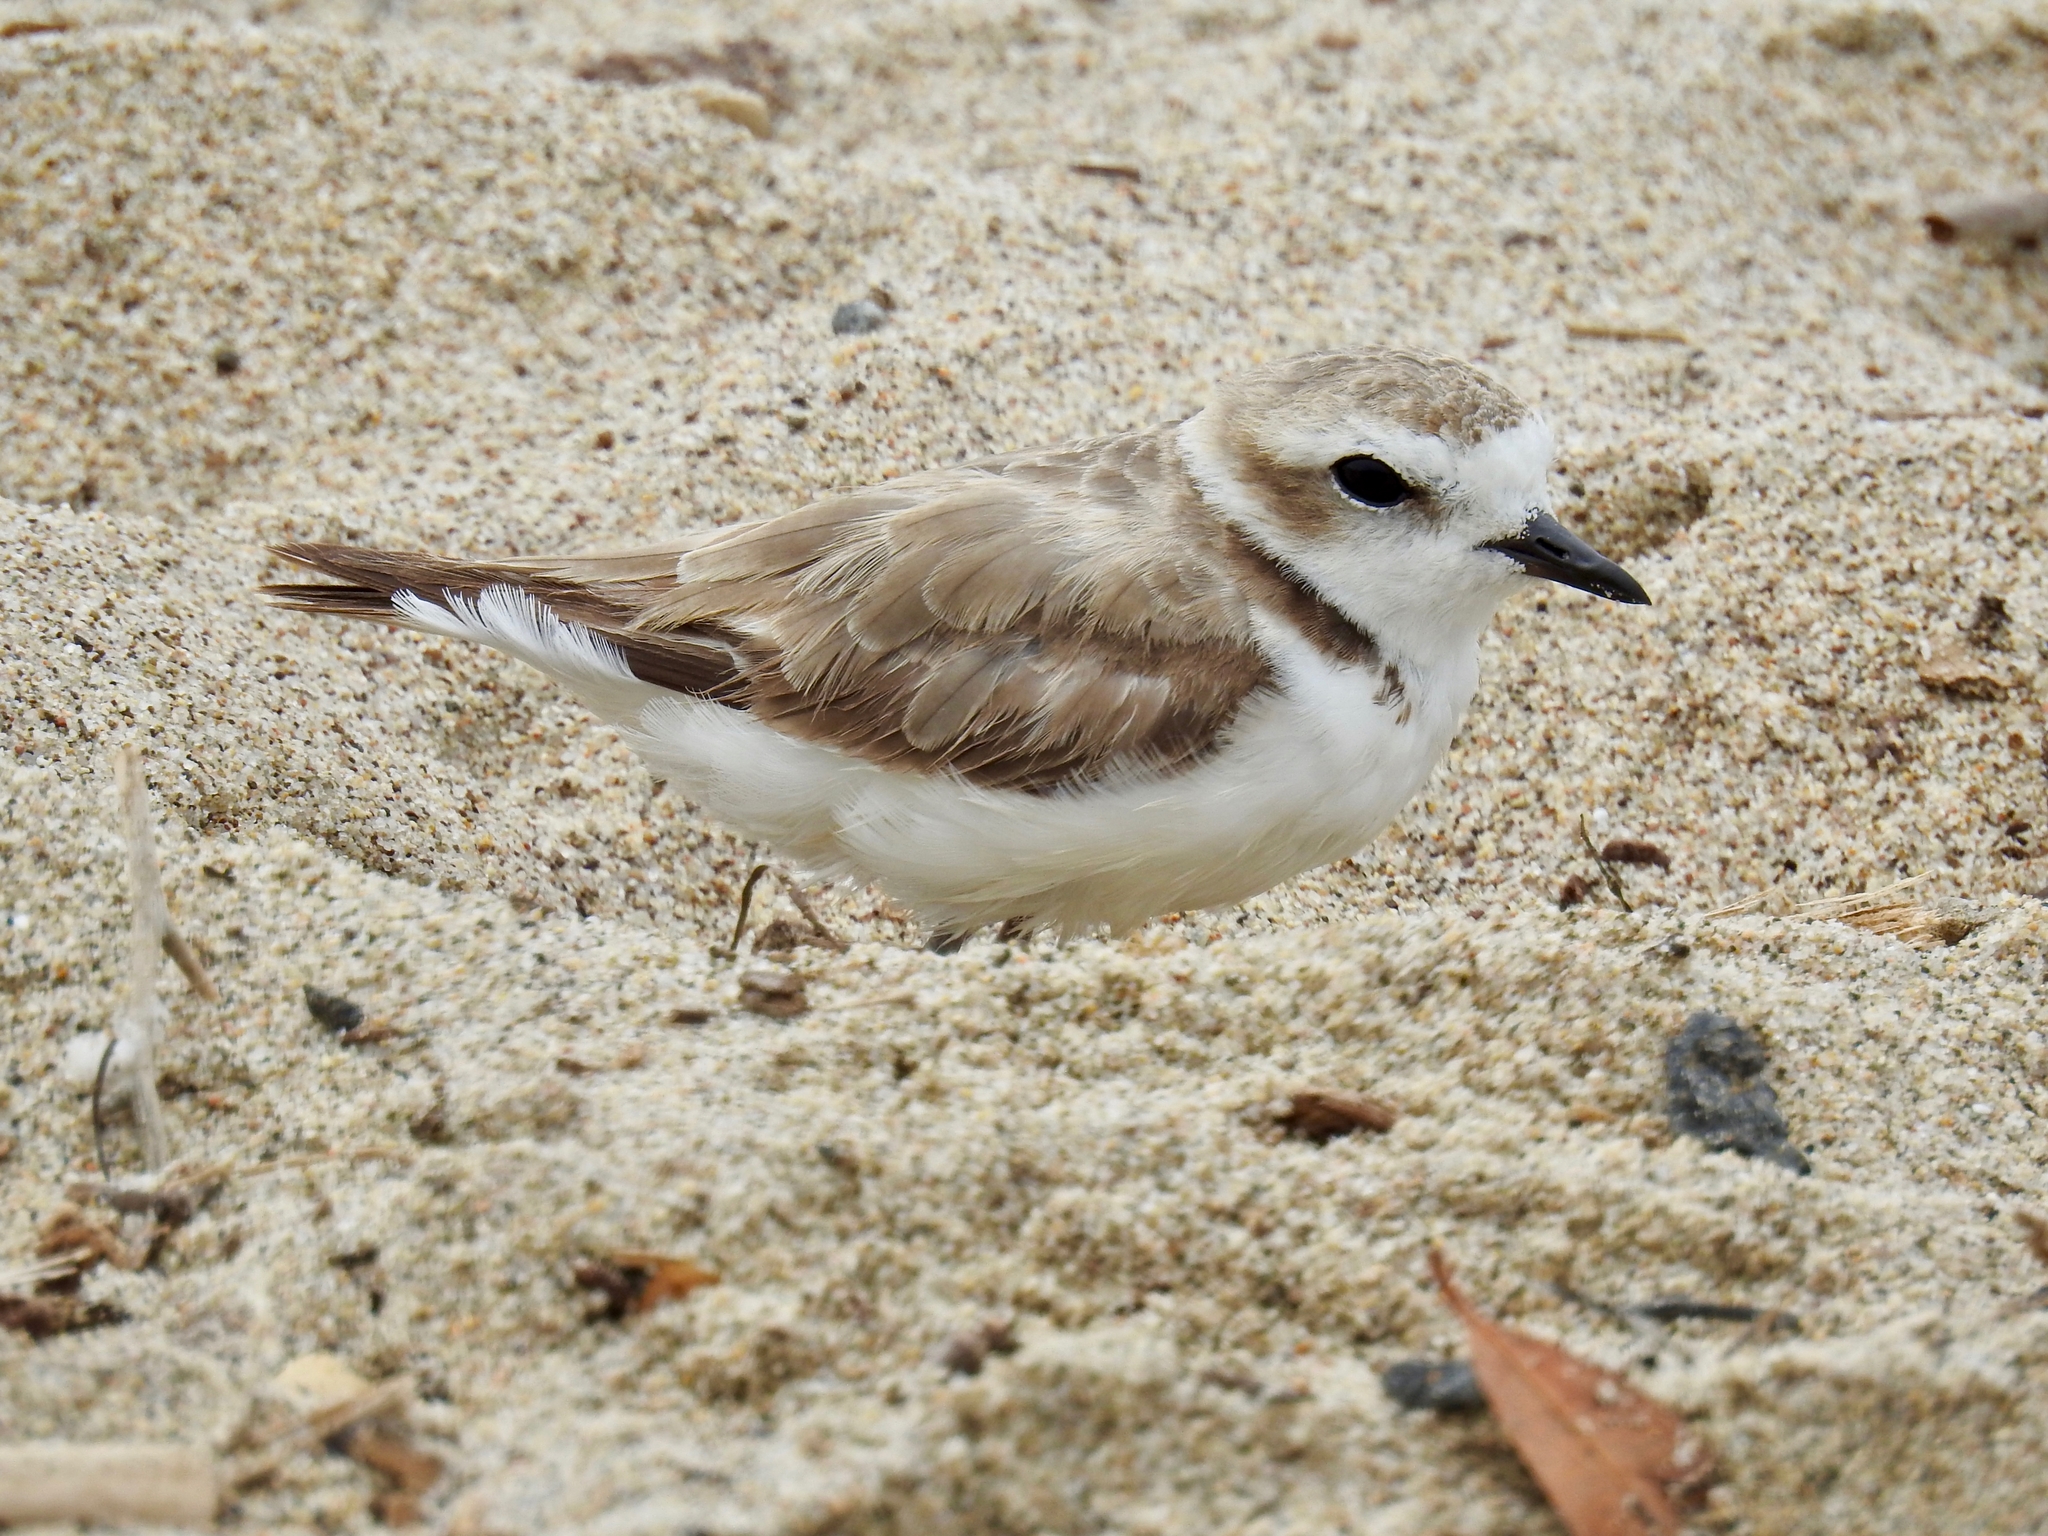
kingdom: Animalia
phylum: Chordata
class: Aves
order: Charadriiformes
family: Charadriidae
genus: Anarhynchus
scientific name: Anarhynchus
